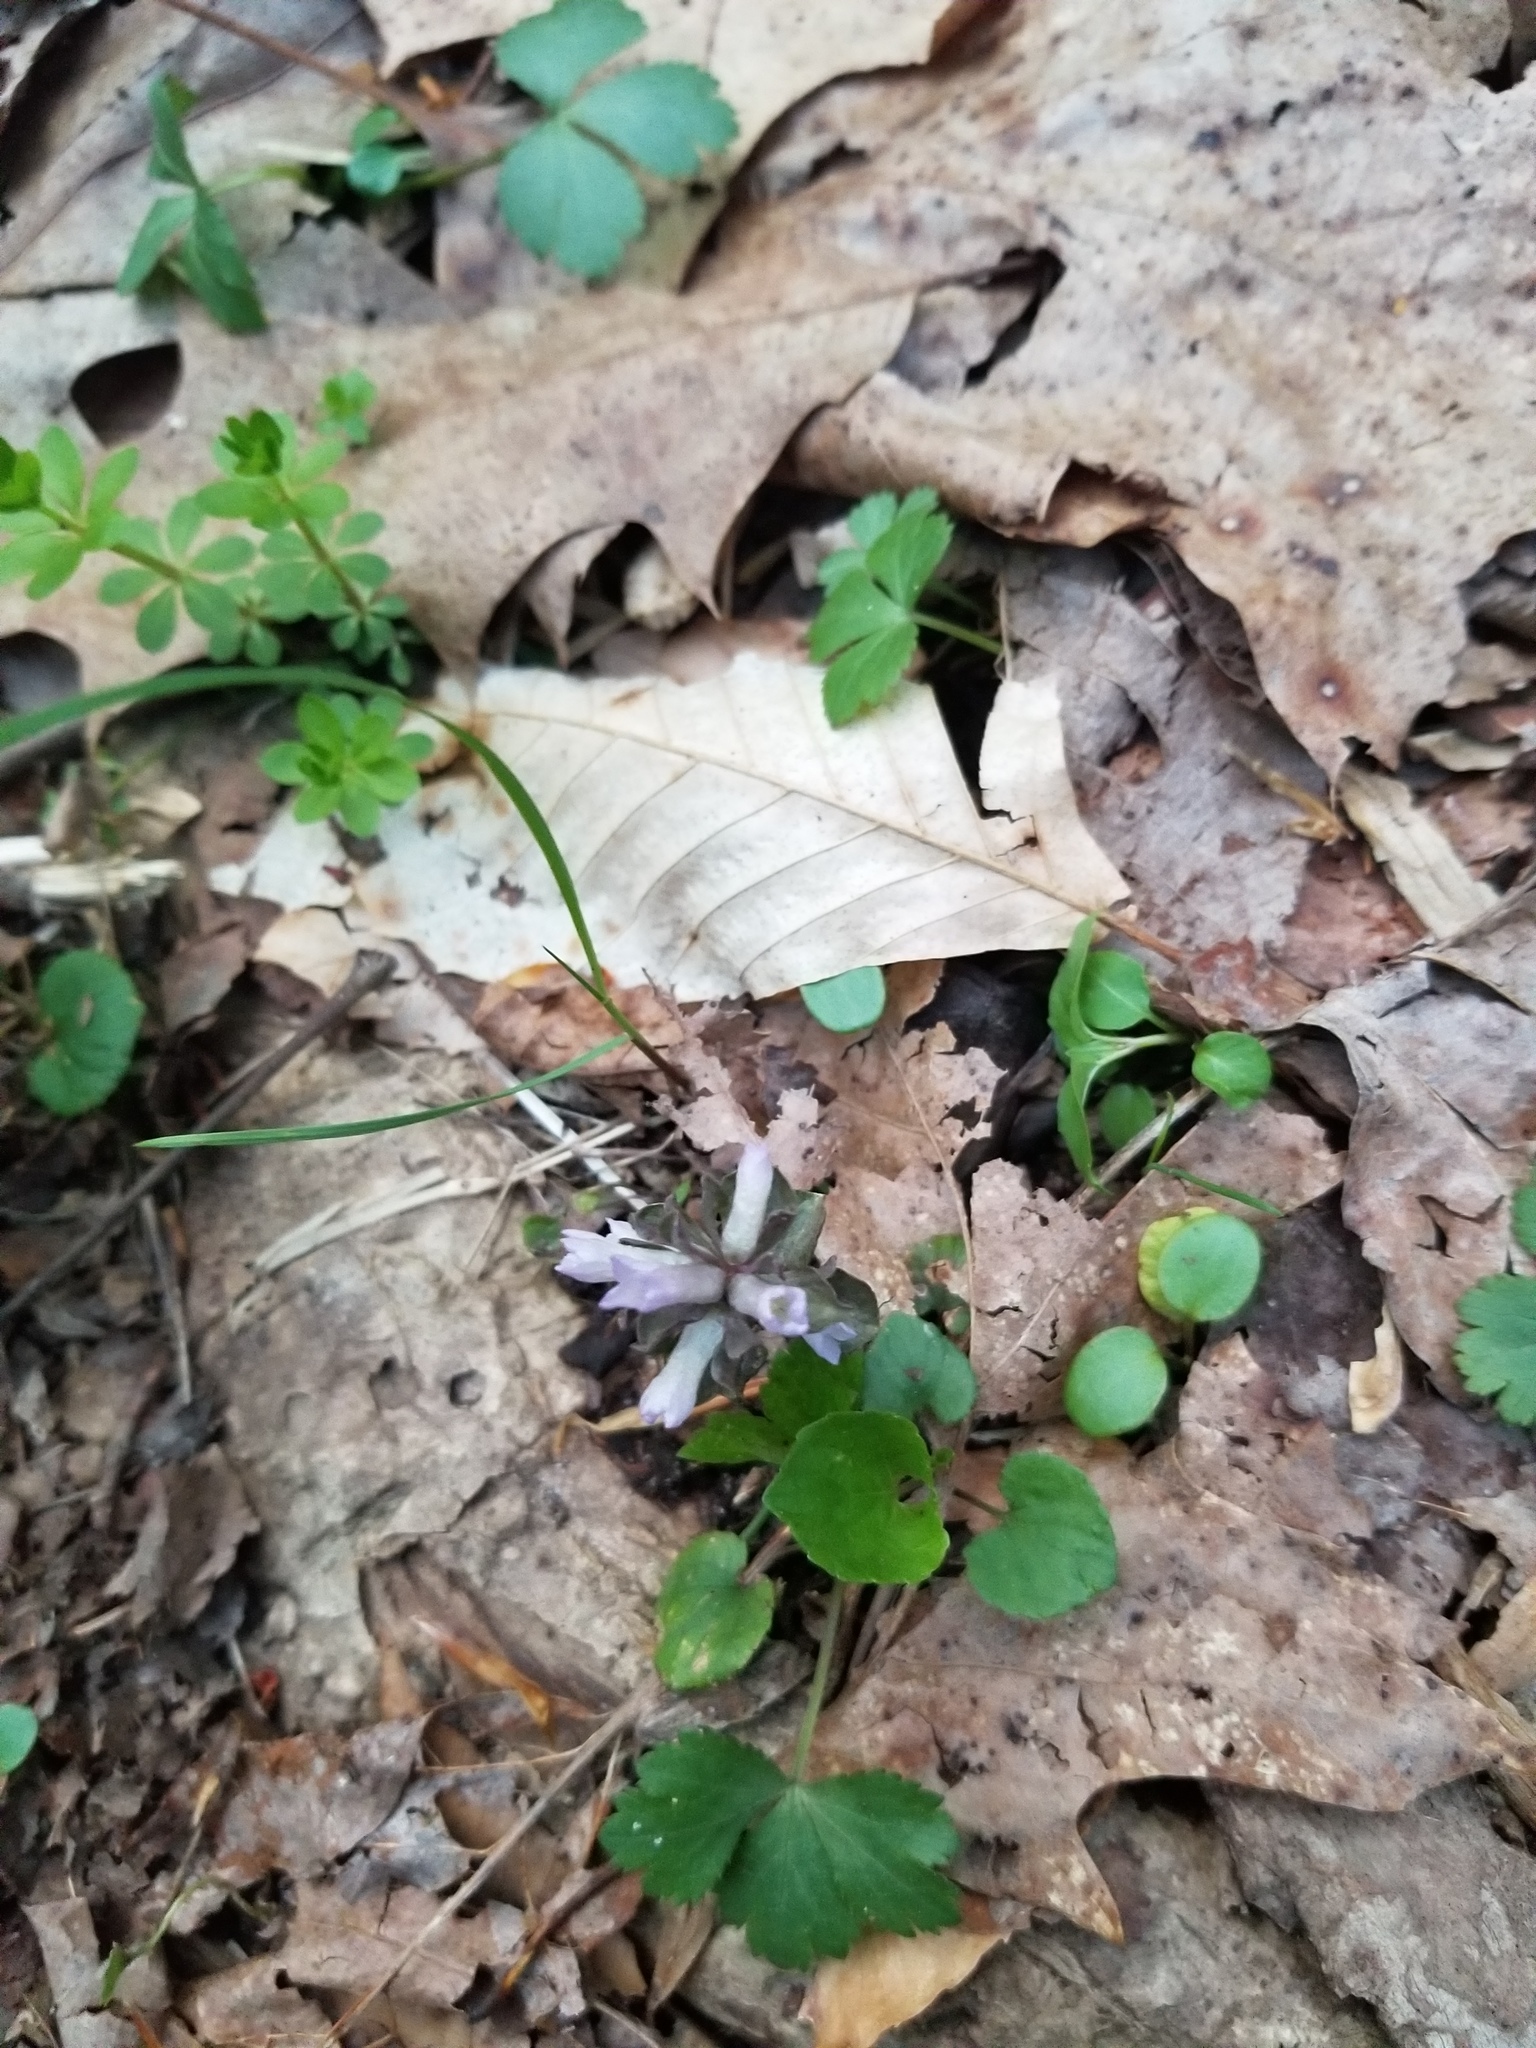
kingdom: Plantae
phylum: Tracheophyta
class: Magnoliopsida
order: Gentianales
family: Gentianaceae
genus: Obolaria
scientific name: Obolaria virginica
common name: Pennywort
